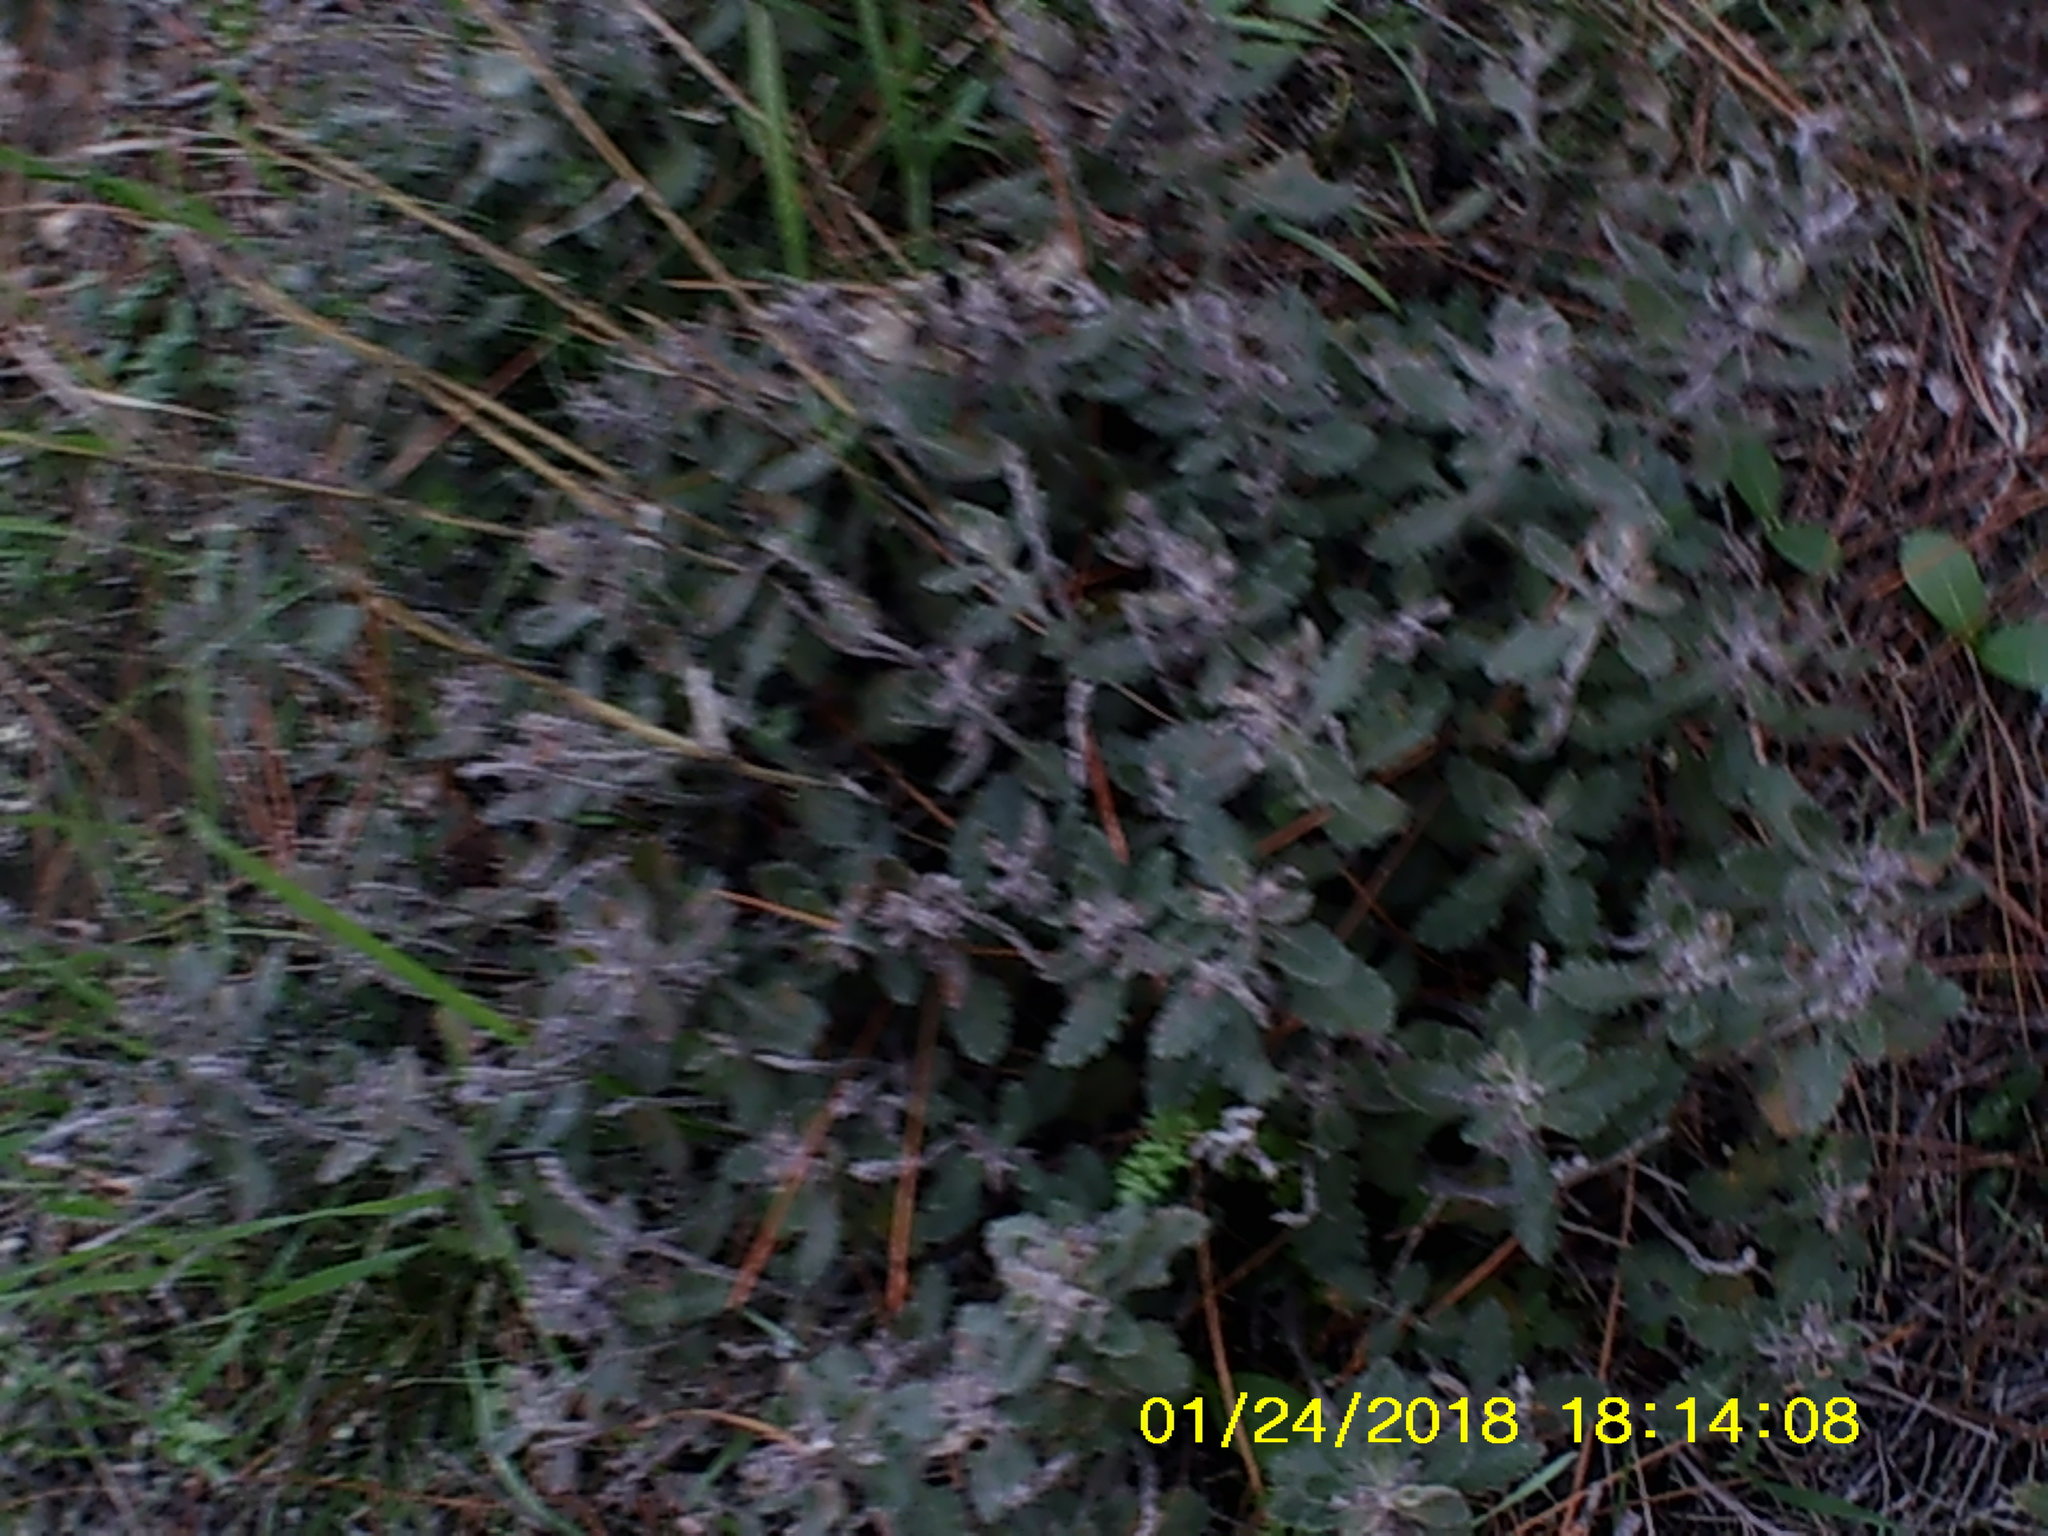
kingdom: Plantae
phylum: Tracheophyta
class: Magnoliopsida
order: Lamiales
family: Lamiaceae
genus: Teucrium
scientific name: Teucrium chamaedrys
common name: Wall germander
